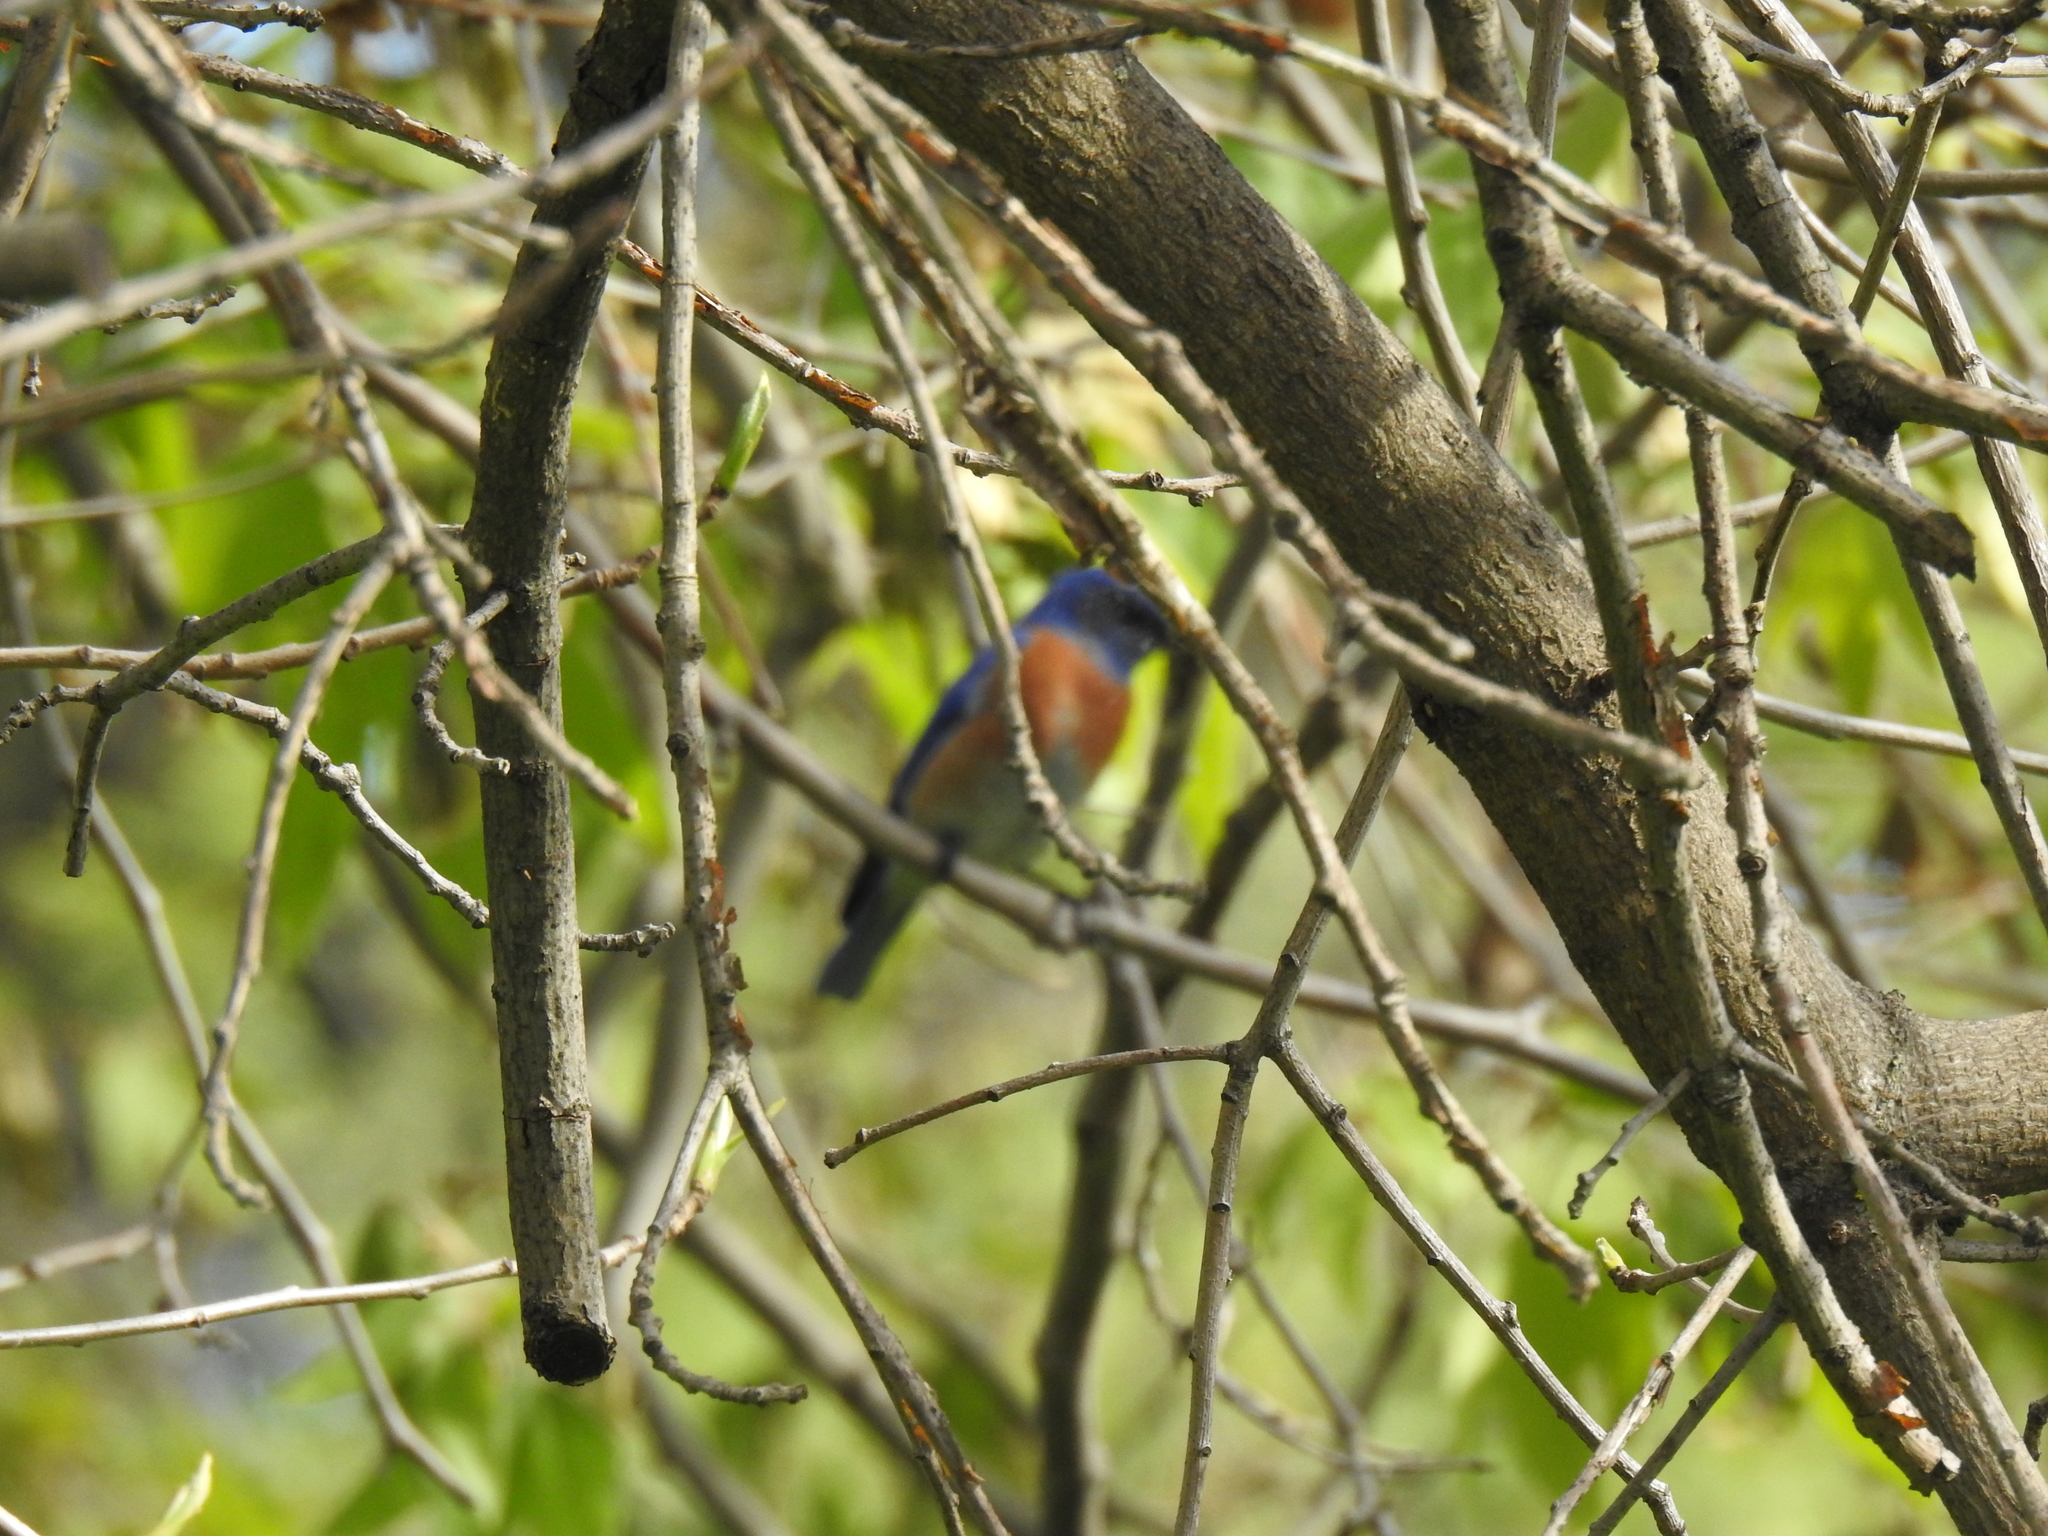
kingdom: Animalia
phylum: Chordata
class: Aves
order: Passeriformes
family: Turdidae
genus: Sialia
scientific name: Sialia mexicana
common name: Western bluebird
